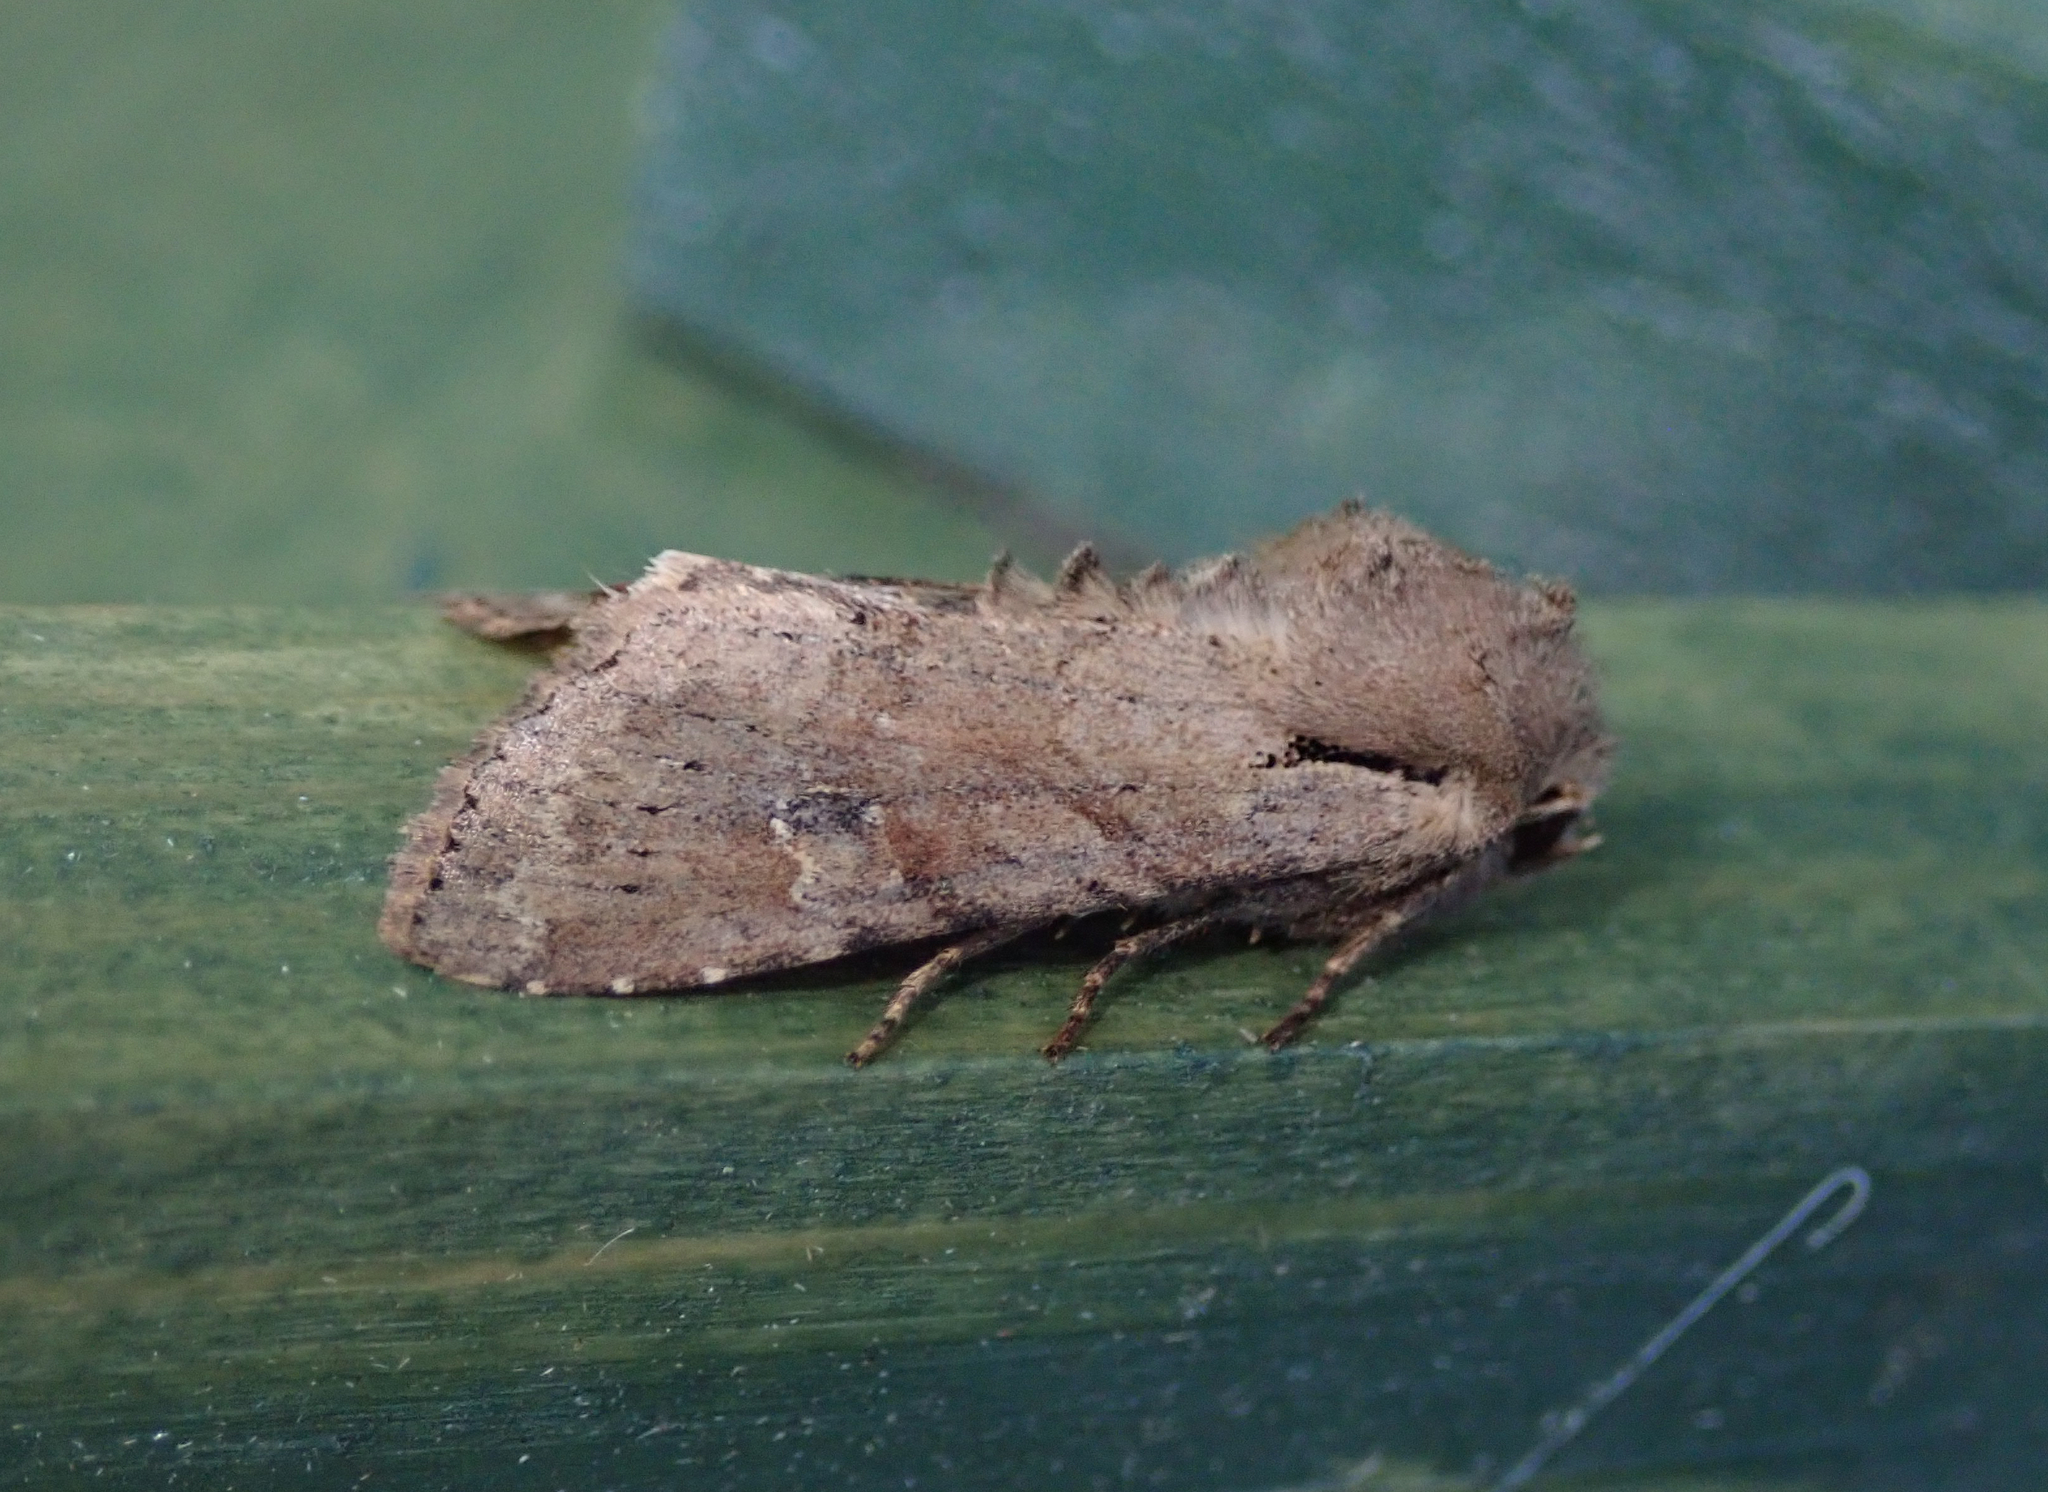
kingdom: Animalia
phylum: Arthropoda
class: Insecta
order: Lepidoptera
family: Noctuidae
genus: Apamea
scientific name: Apamea sordens
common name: Rustic shoulder-knot
